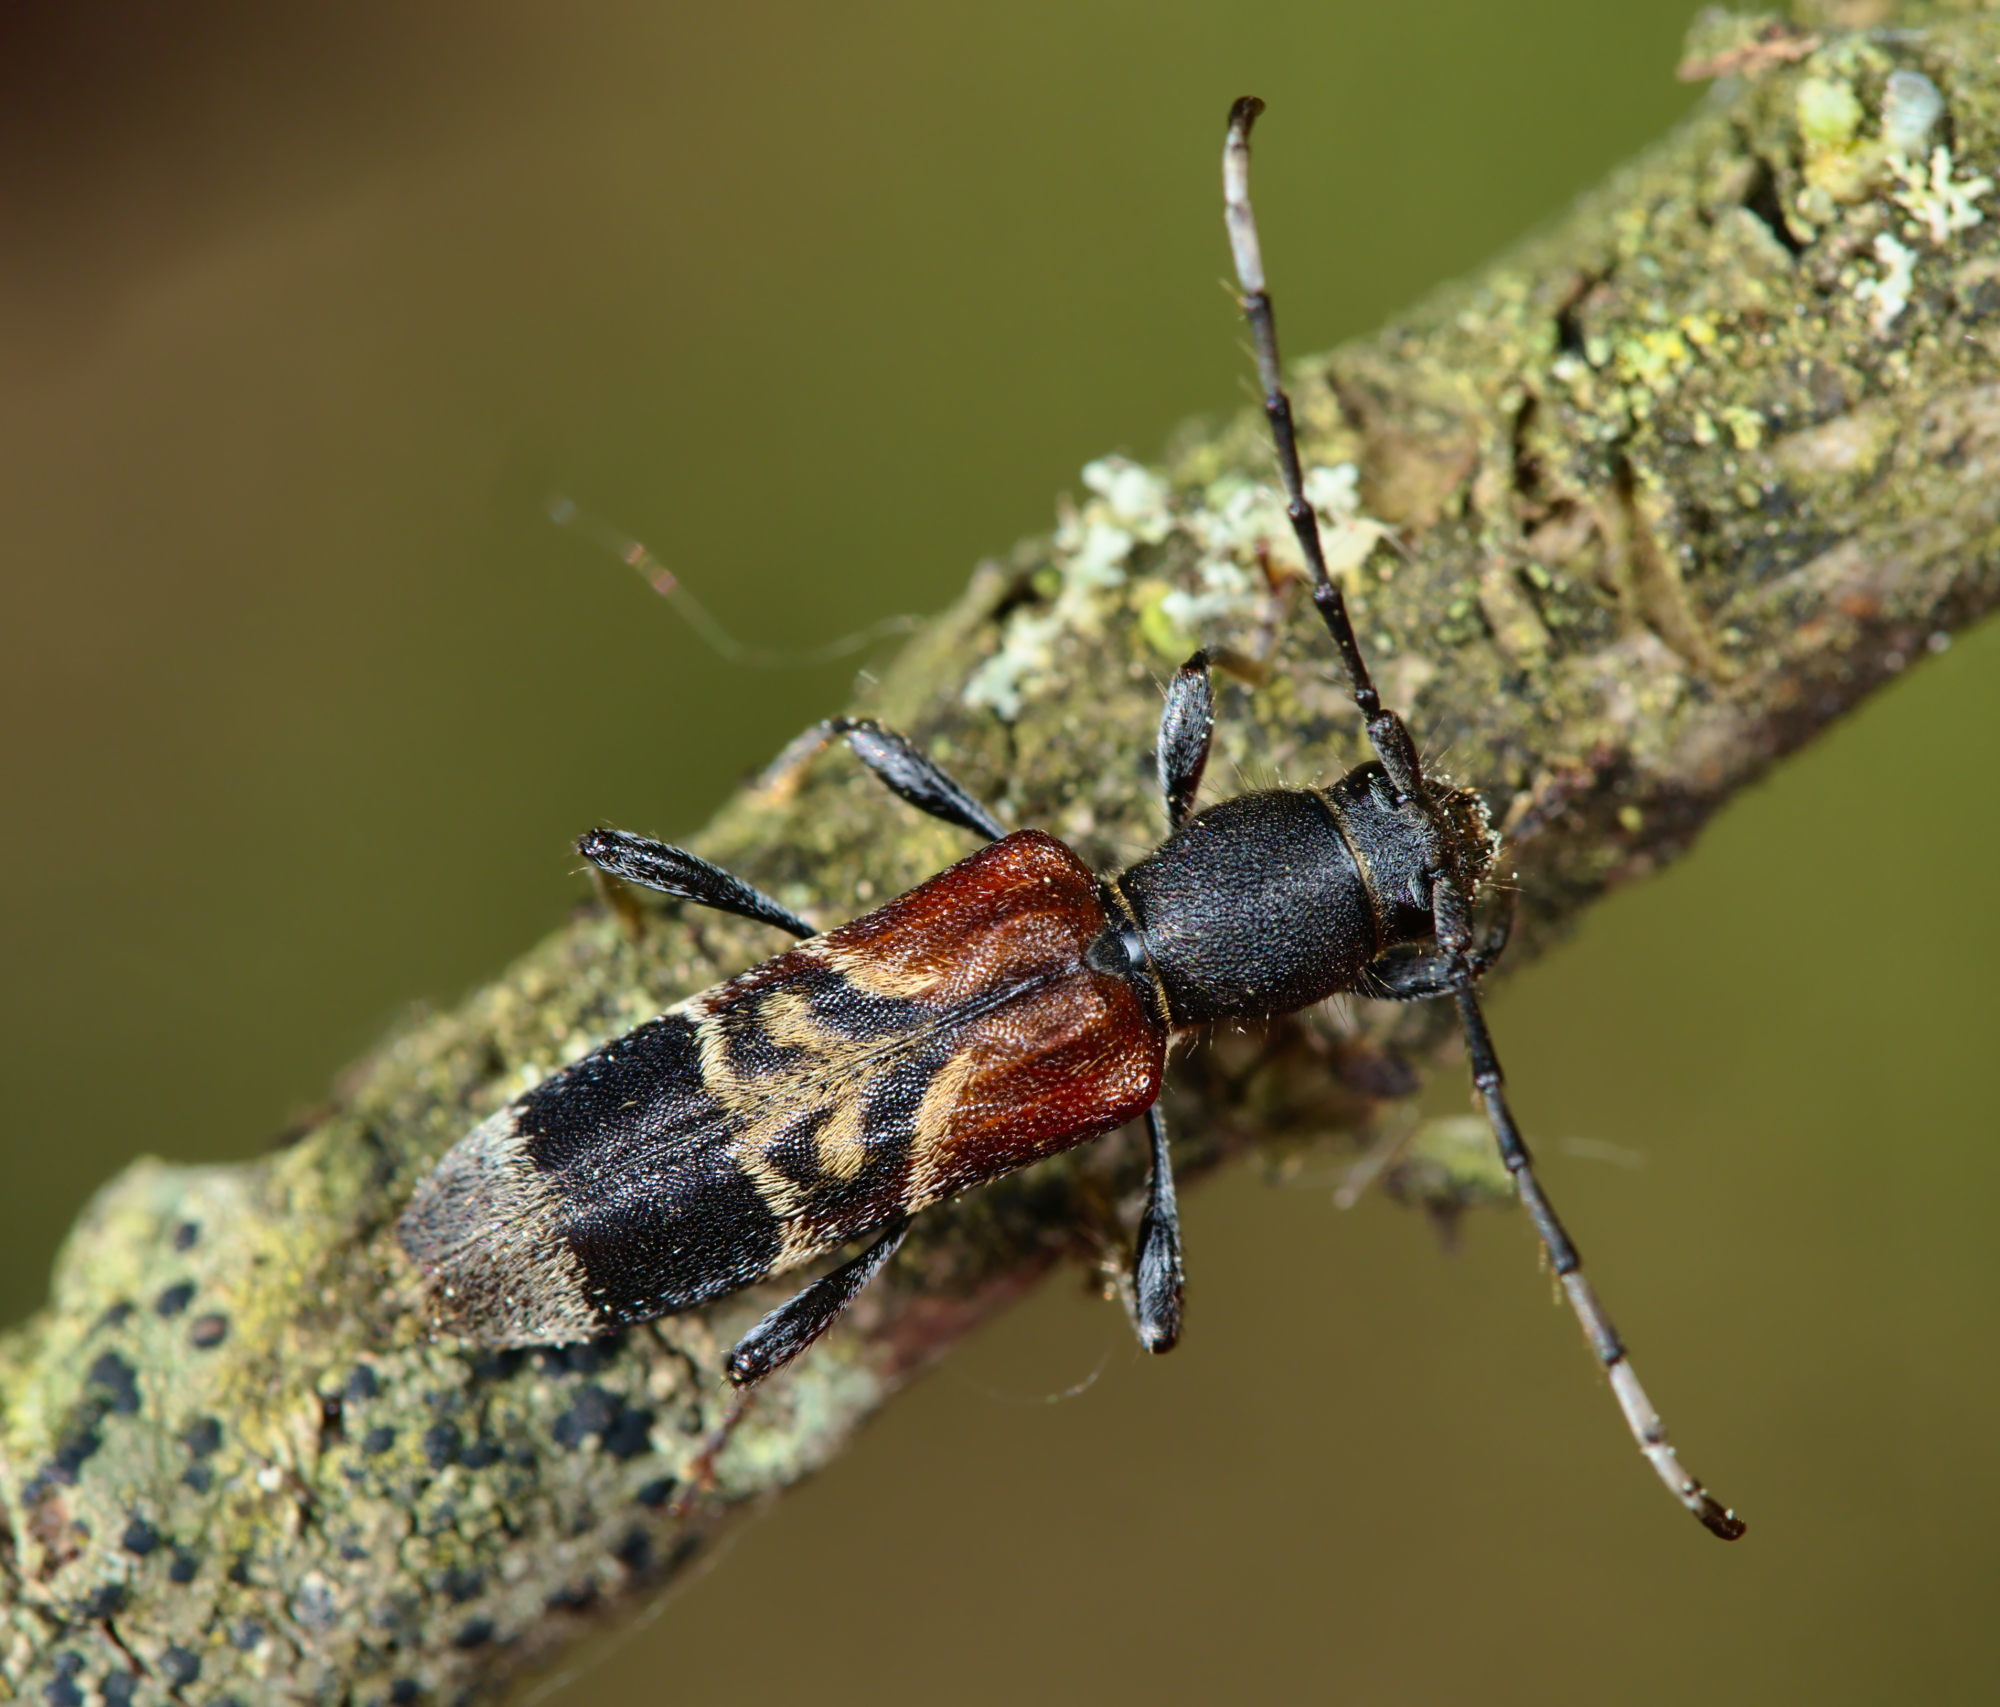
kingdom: Animalia
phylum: Arthropoda
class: Insecta
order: Coleoptera
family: Cerambycidae
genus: Anaglyptus
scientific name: Anaglyptus mysticus
